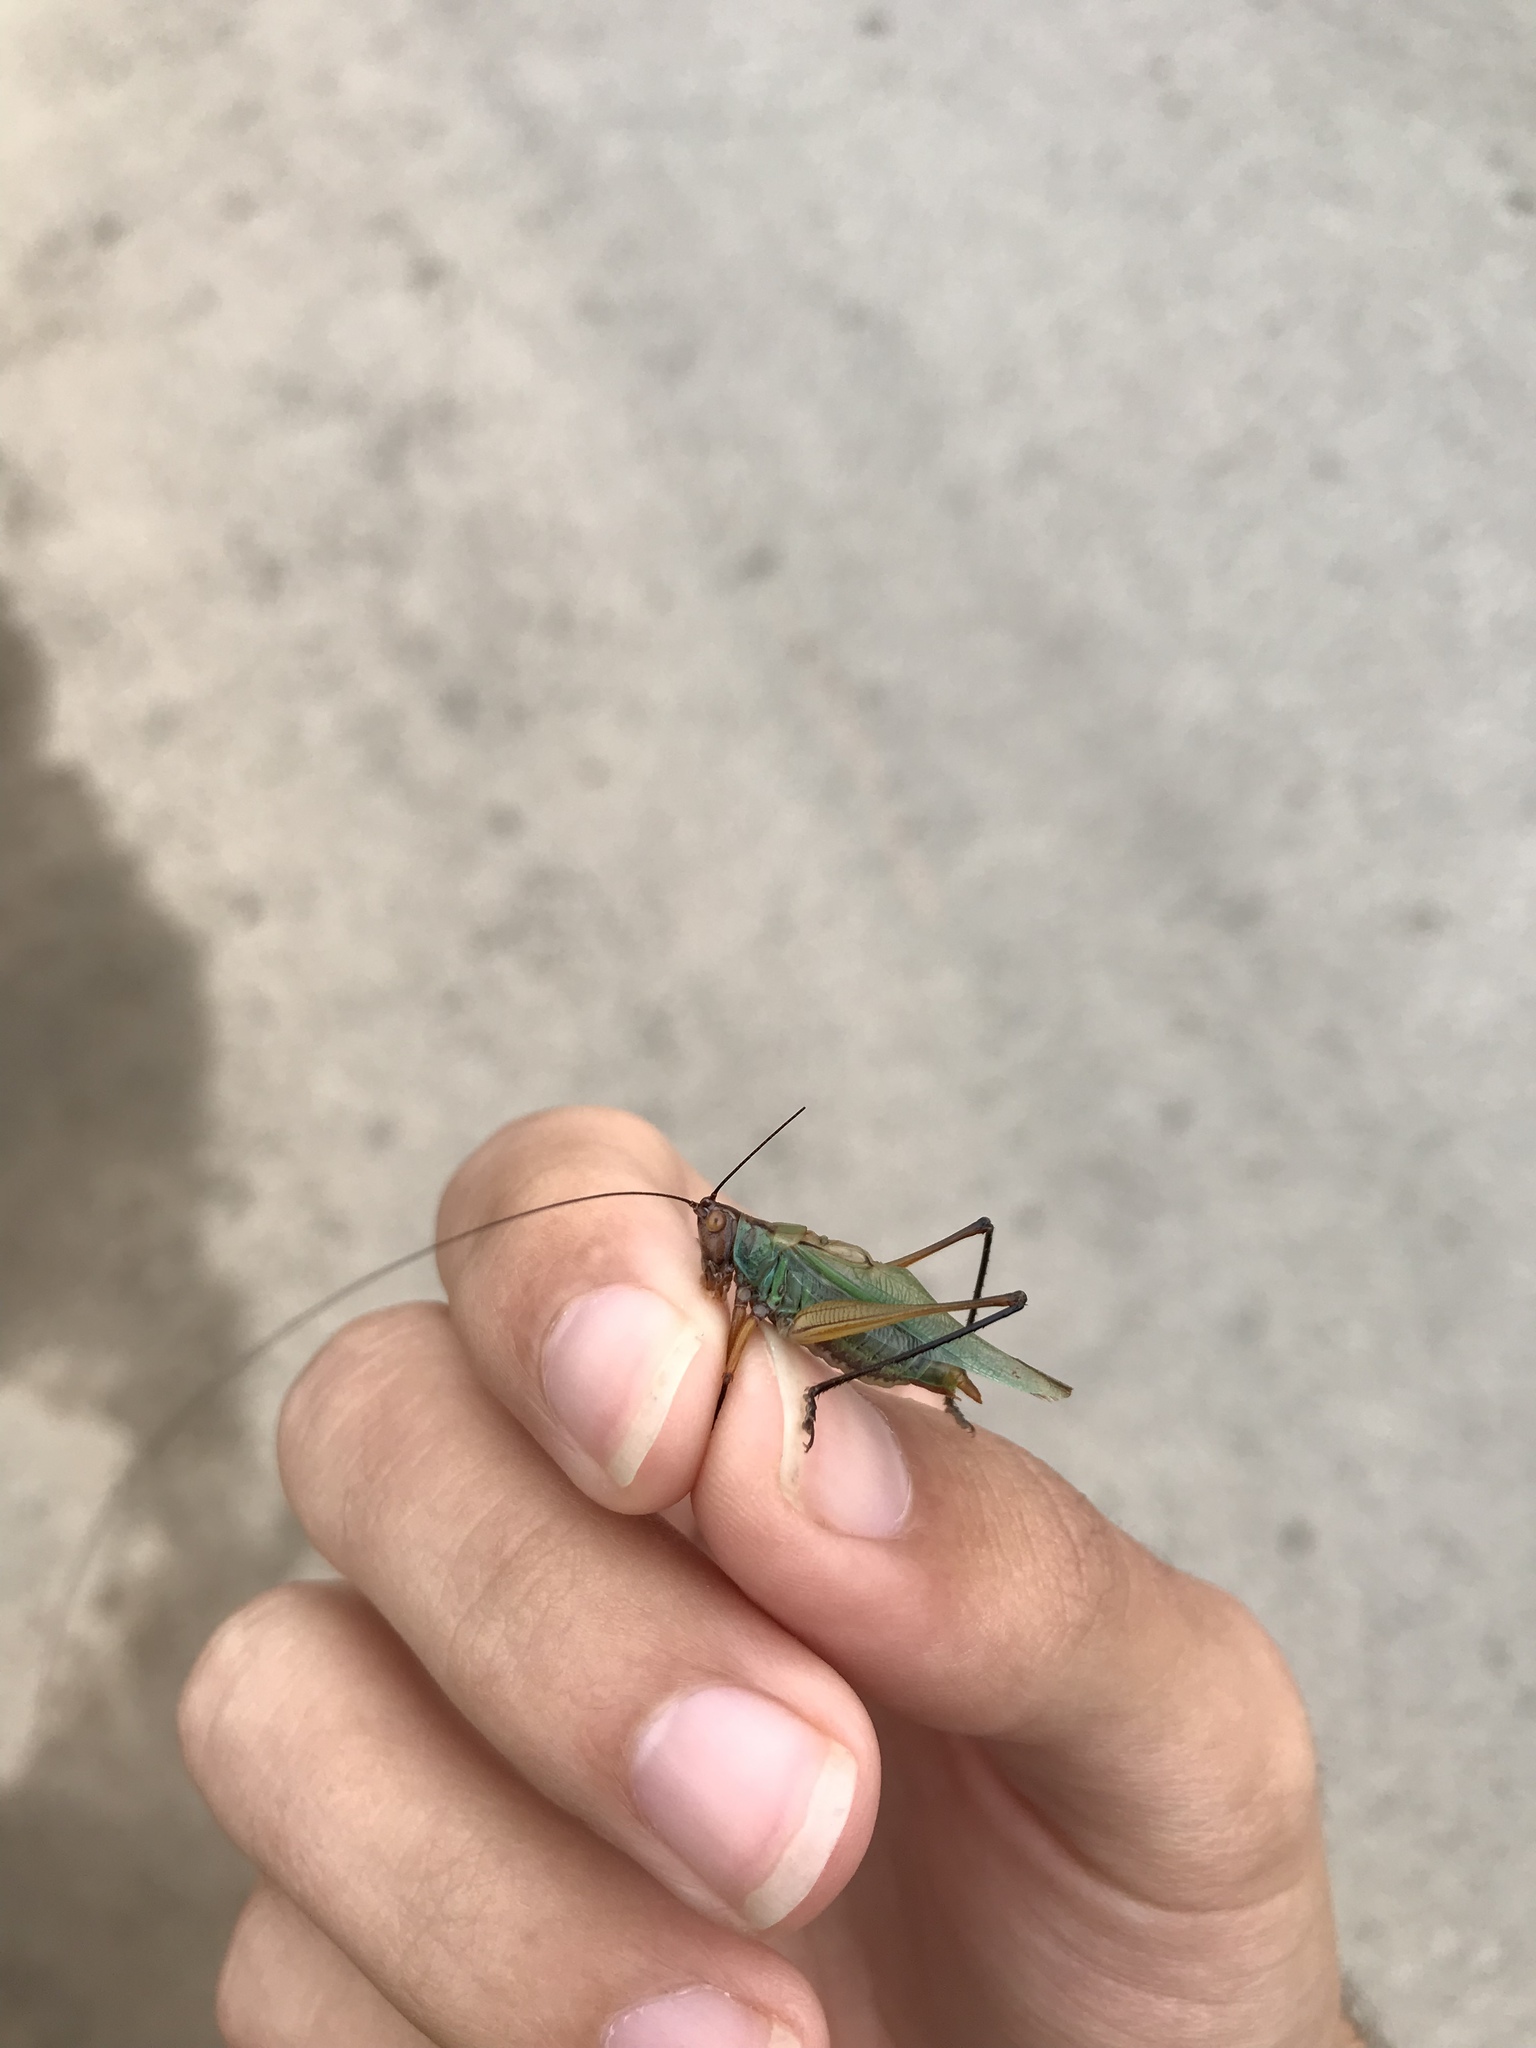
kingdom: Animalia
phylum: Arthropoda
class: Insecta
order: Orthoptera
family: Tettigoniidae
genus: Orchelimum
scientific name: Orchelimum nigripes
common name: Black-legged meadow katydid
